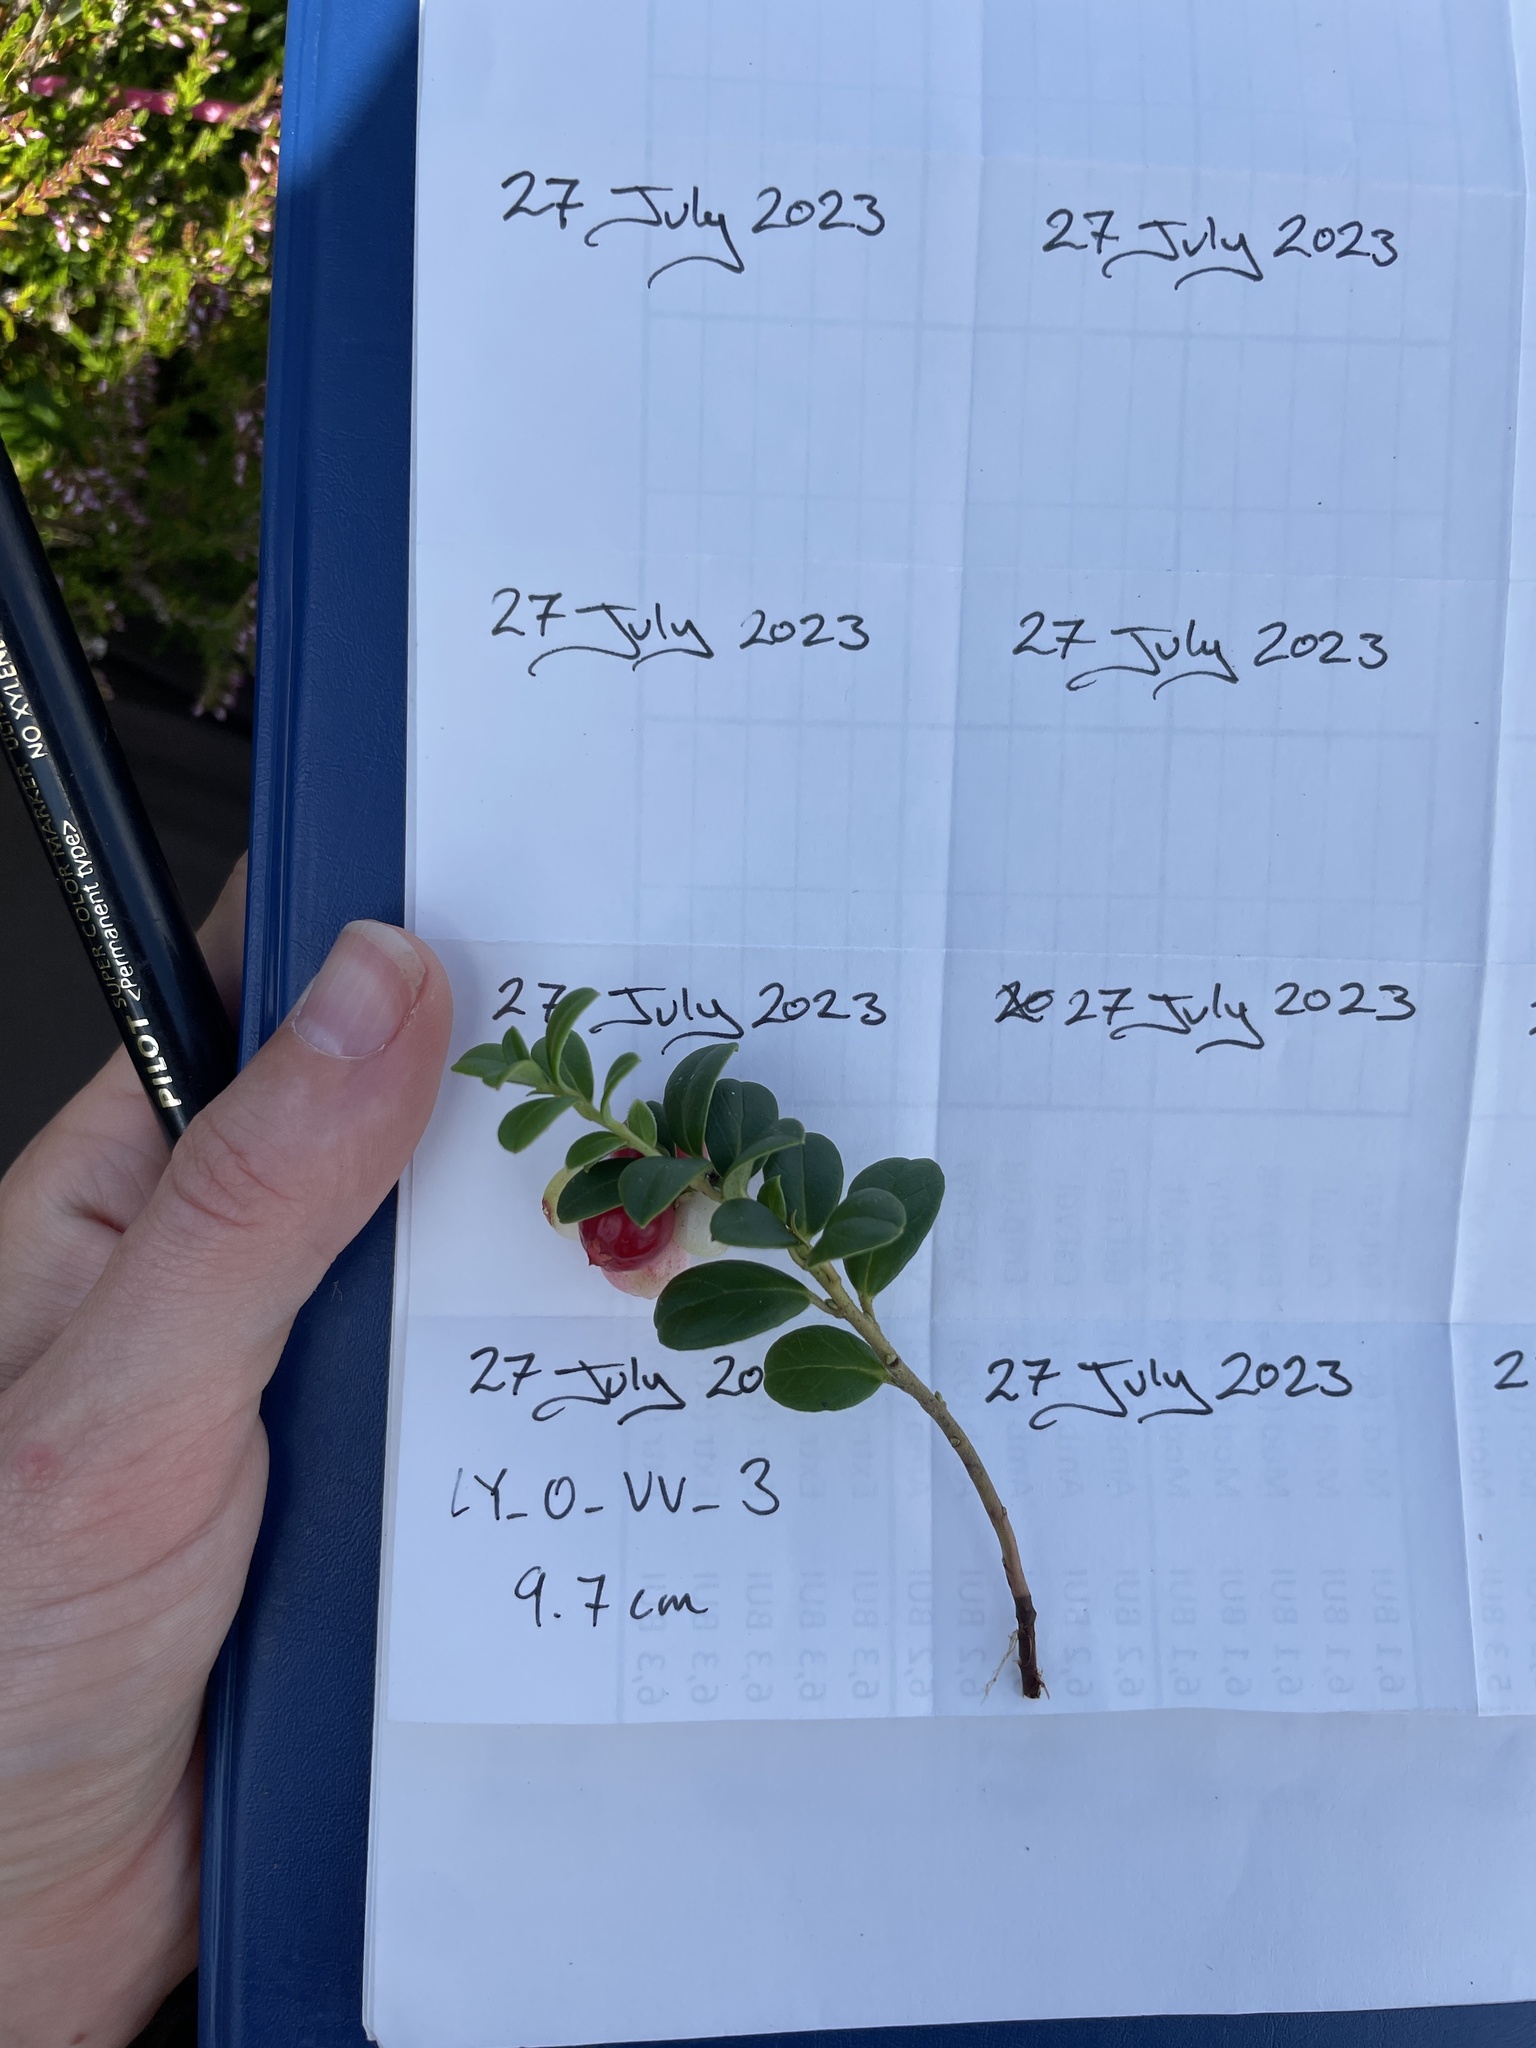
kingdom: Plantae
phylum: Tracheophyta
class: Magnoliopsida
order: Ericales
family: Ericaceae
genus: Vaccinium
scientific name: Vaccinium vitis-idaea
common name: Cowberry
